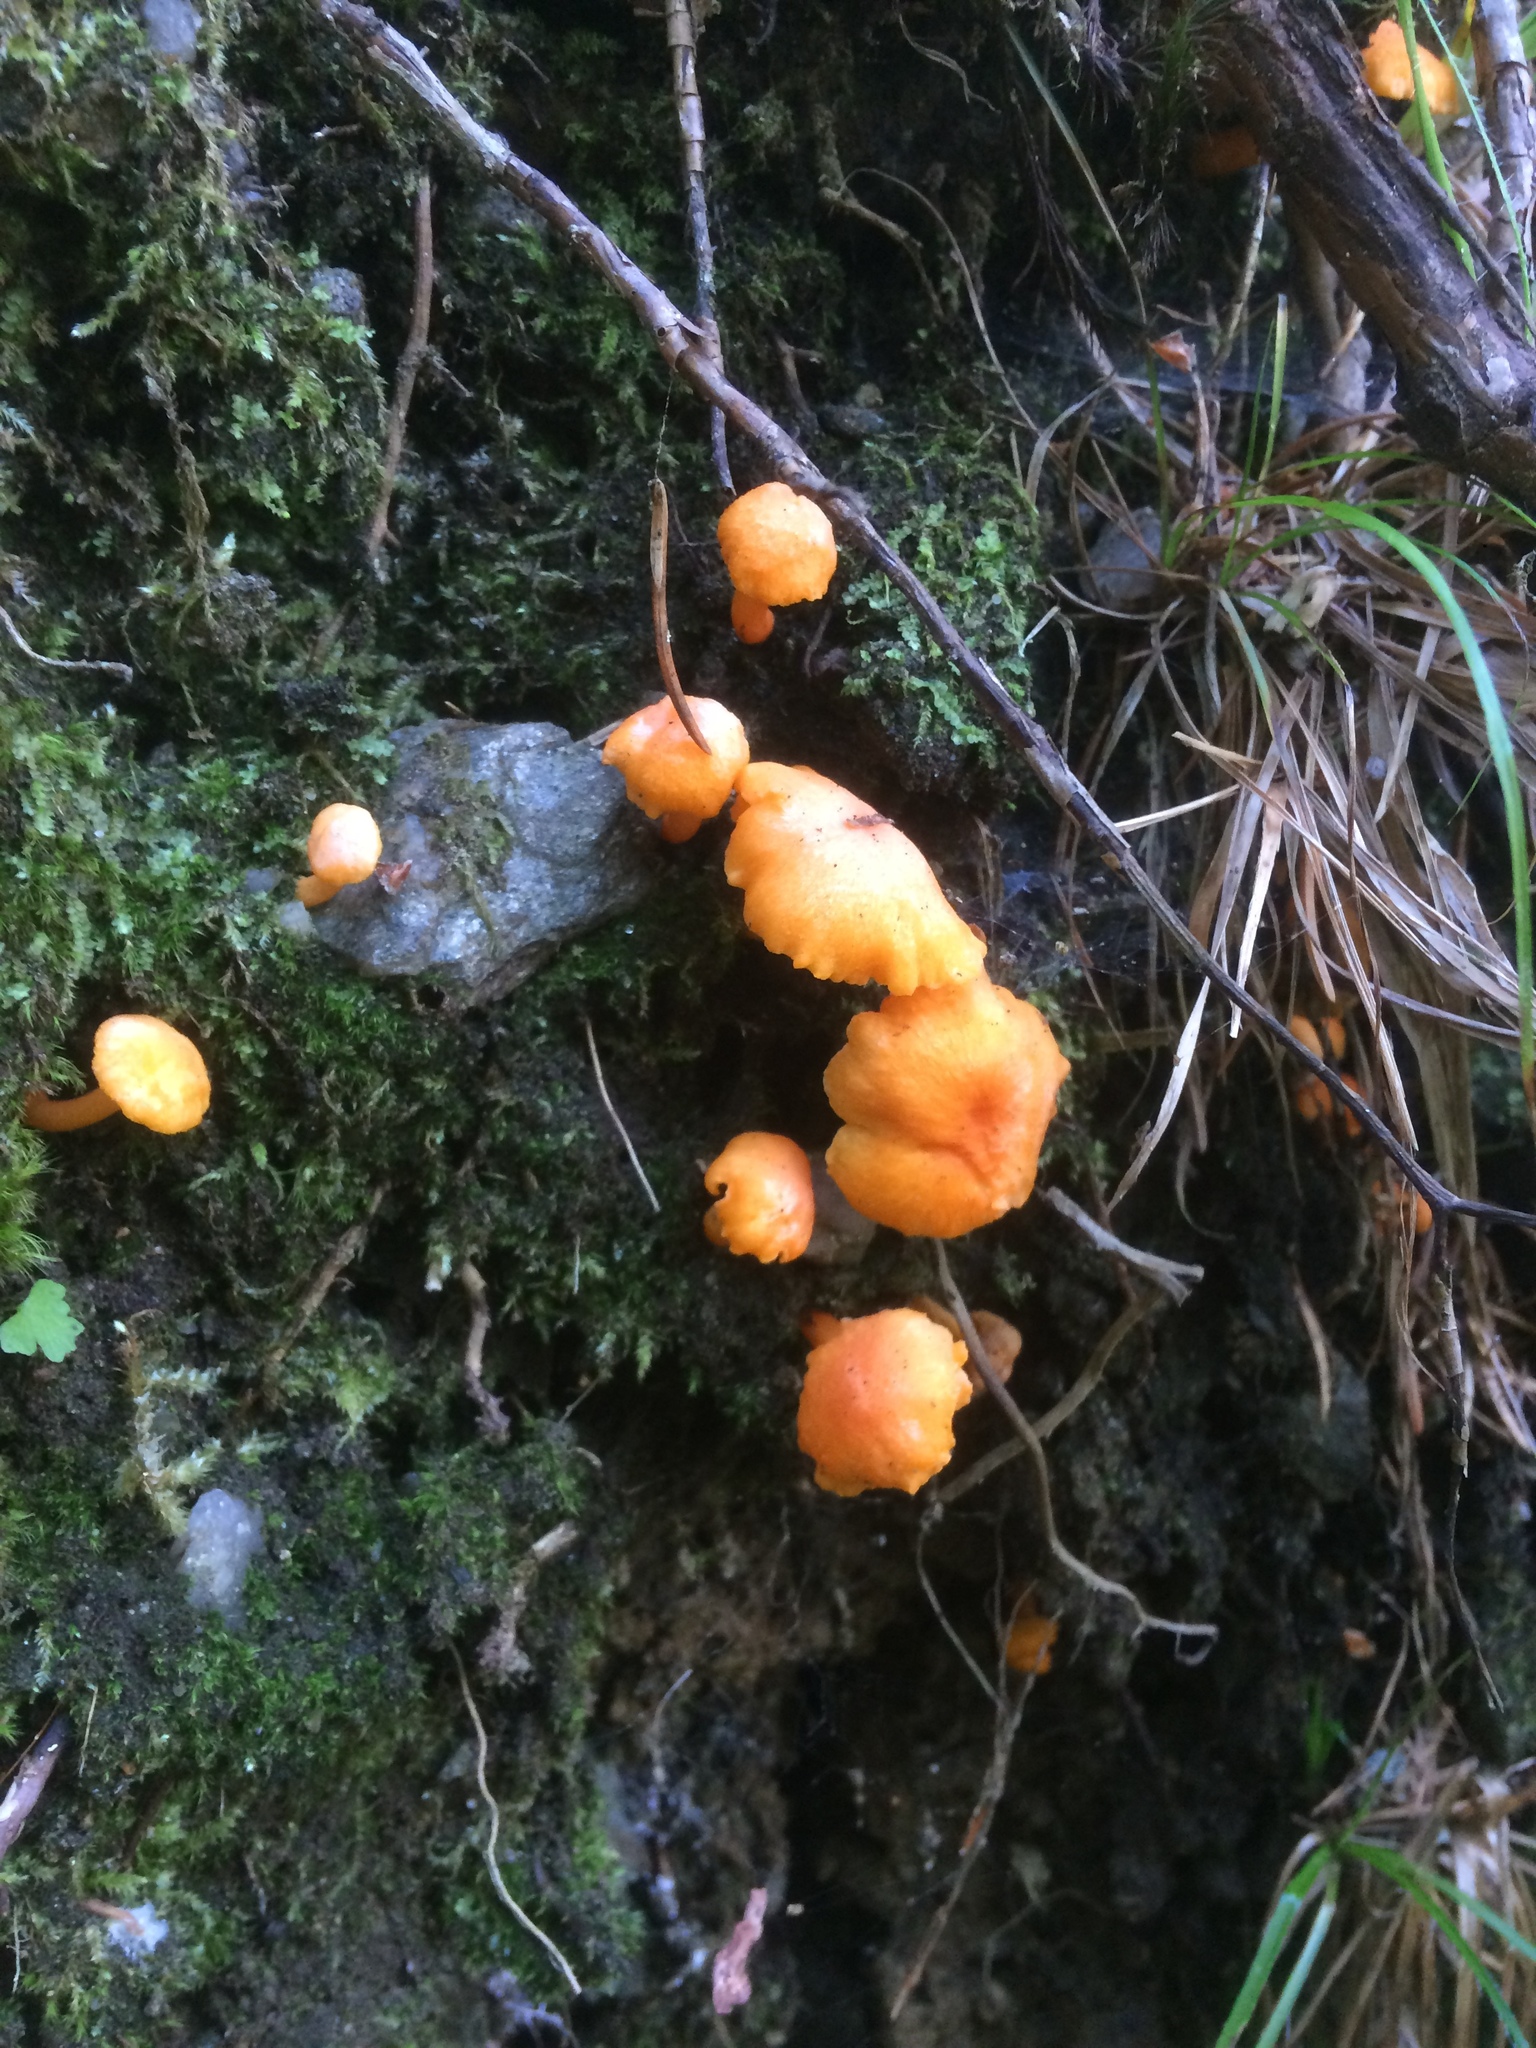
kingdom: Fungi
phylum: Basidiomycota
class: Agaricomycetes
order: Cantharellales
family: Hydnaceae
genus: Cantharellus
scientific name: Cantharellus friesii
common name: Orange chanterelle
